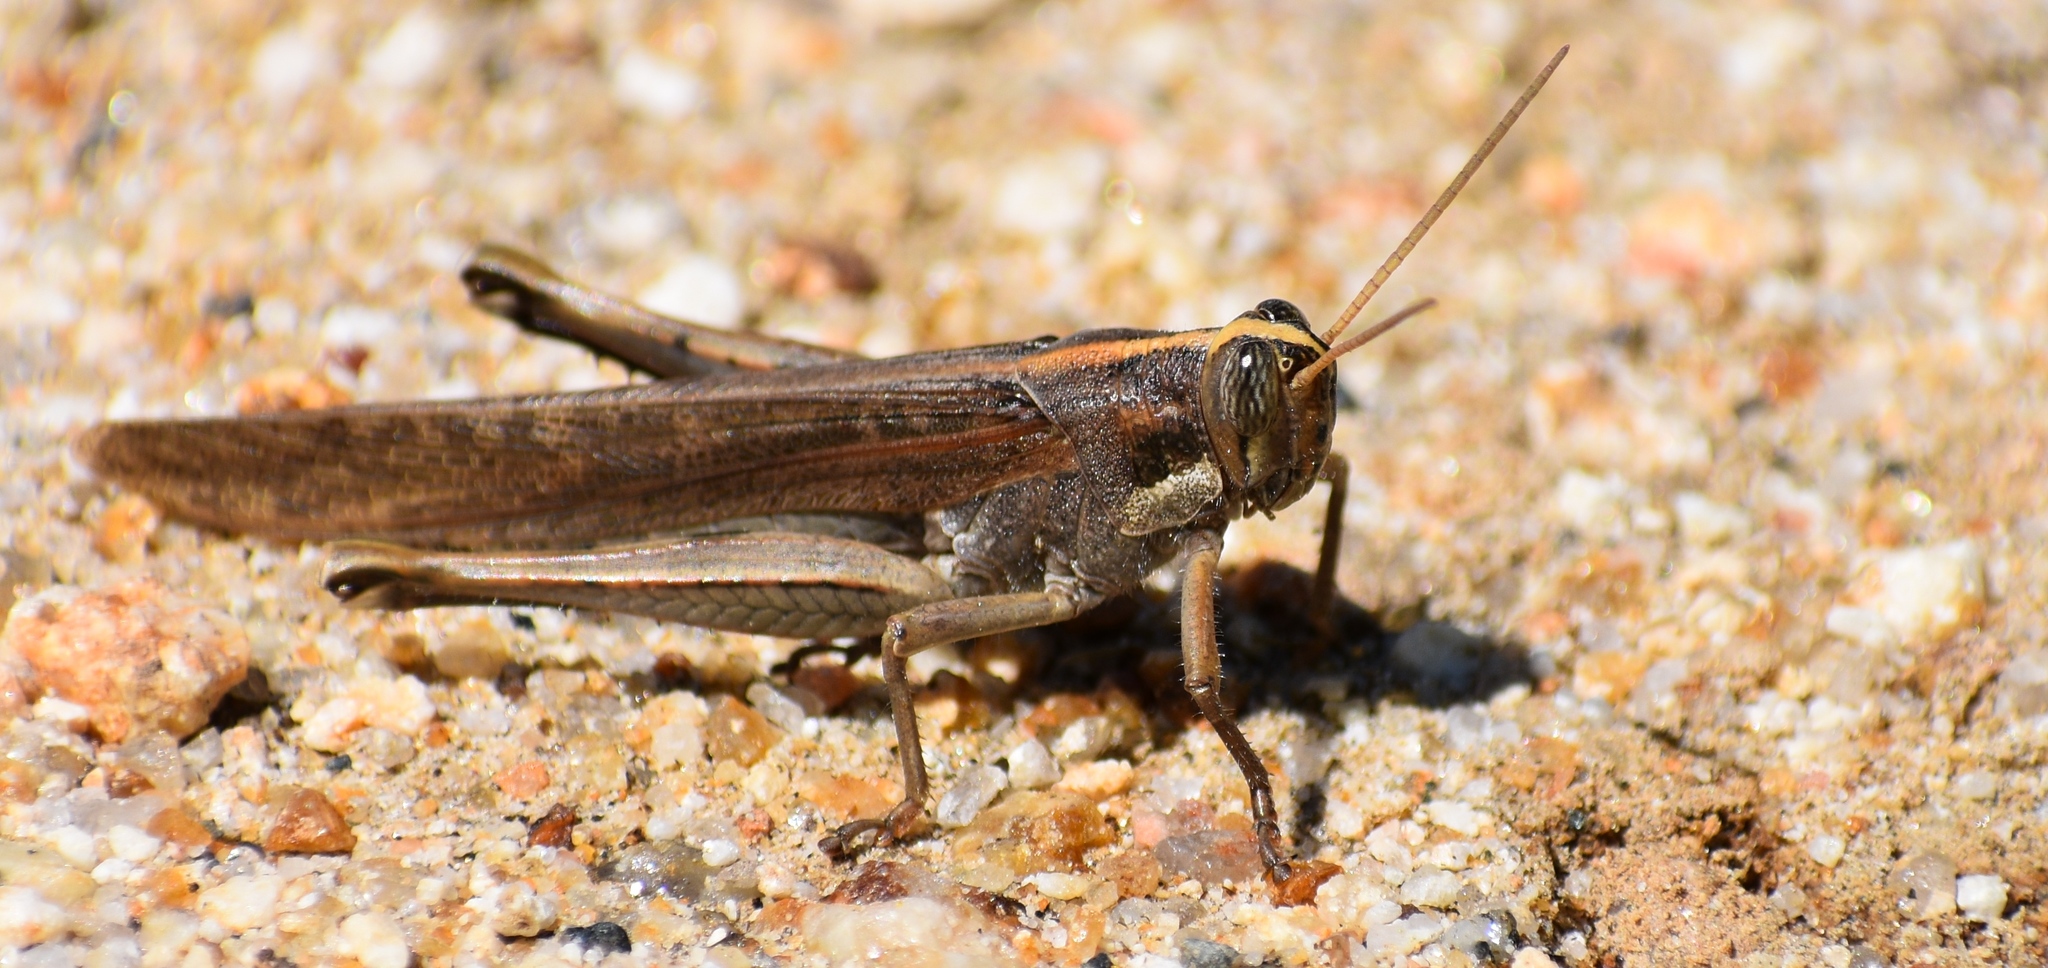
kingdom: Animalia
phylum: Arthropoda
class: Insecta
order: Orthoptera
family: Acrididae
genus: Schistocerca
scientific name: Schistocerca nitens
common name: Vagrant grasshopper
